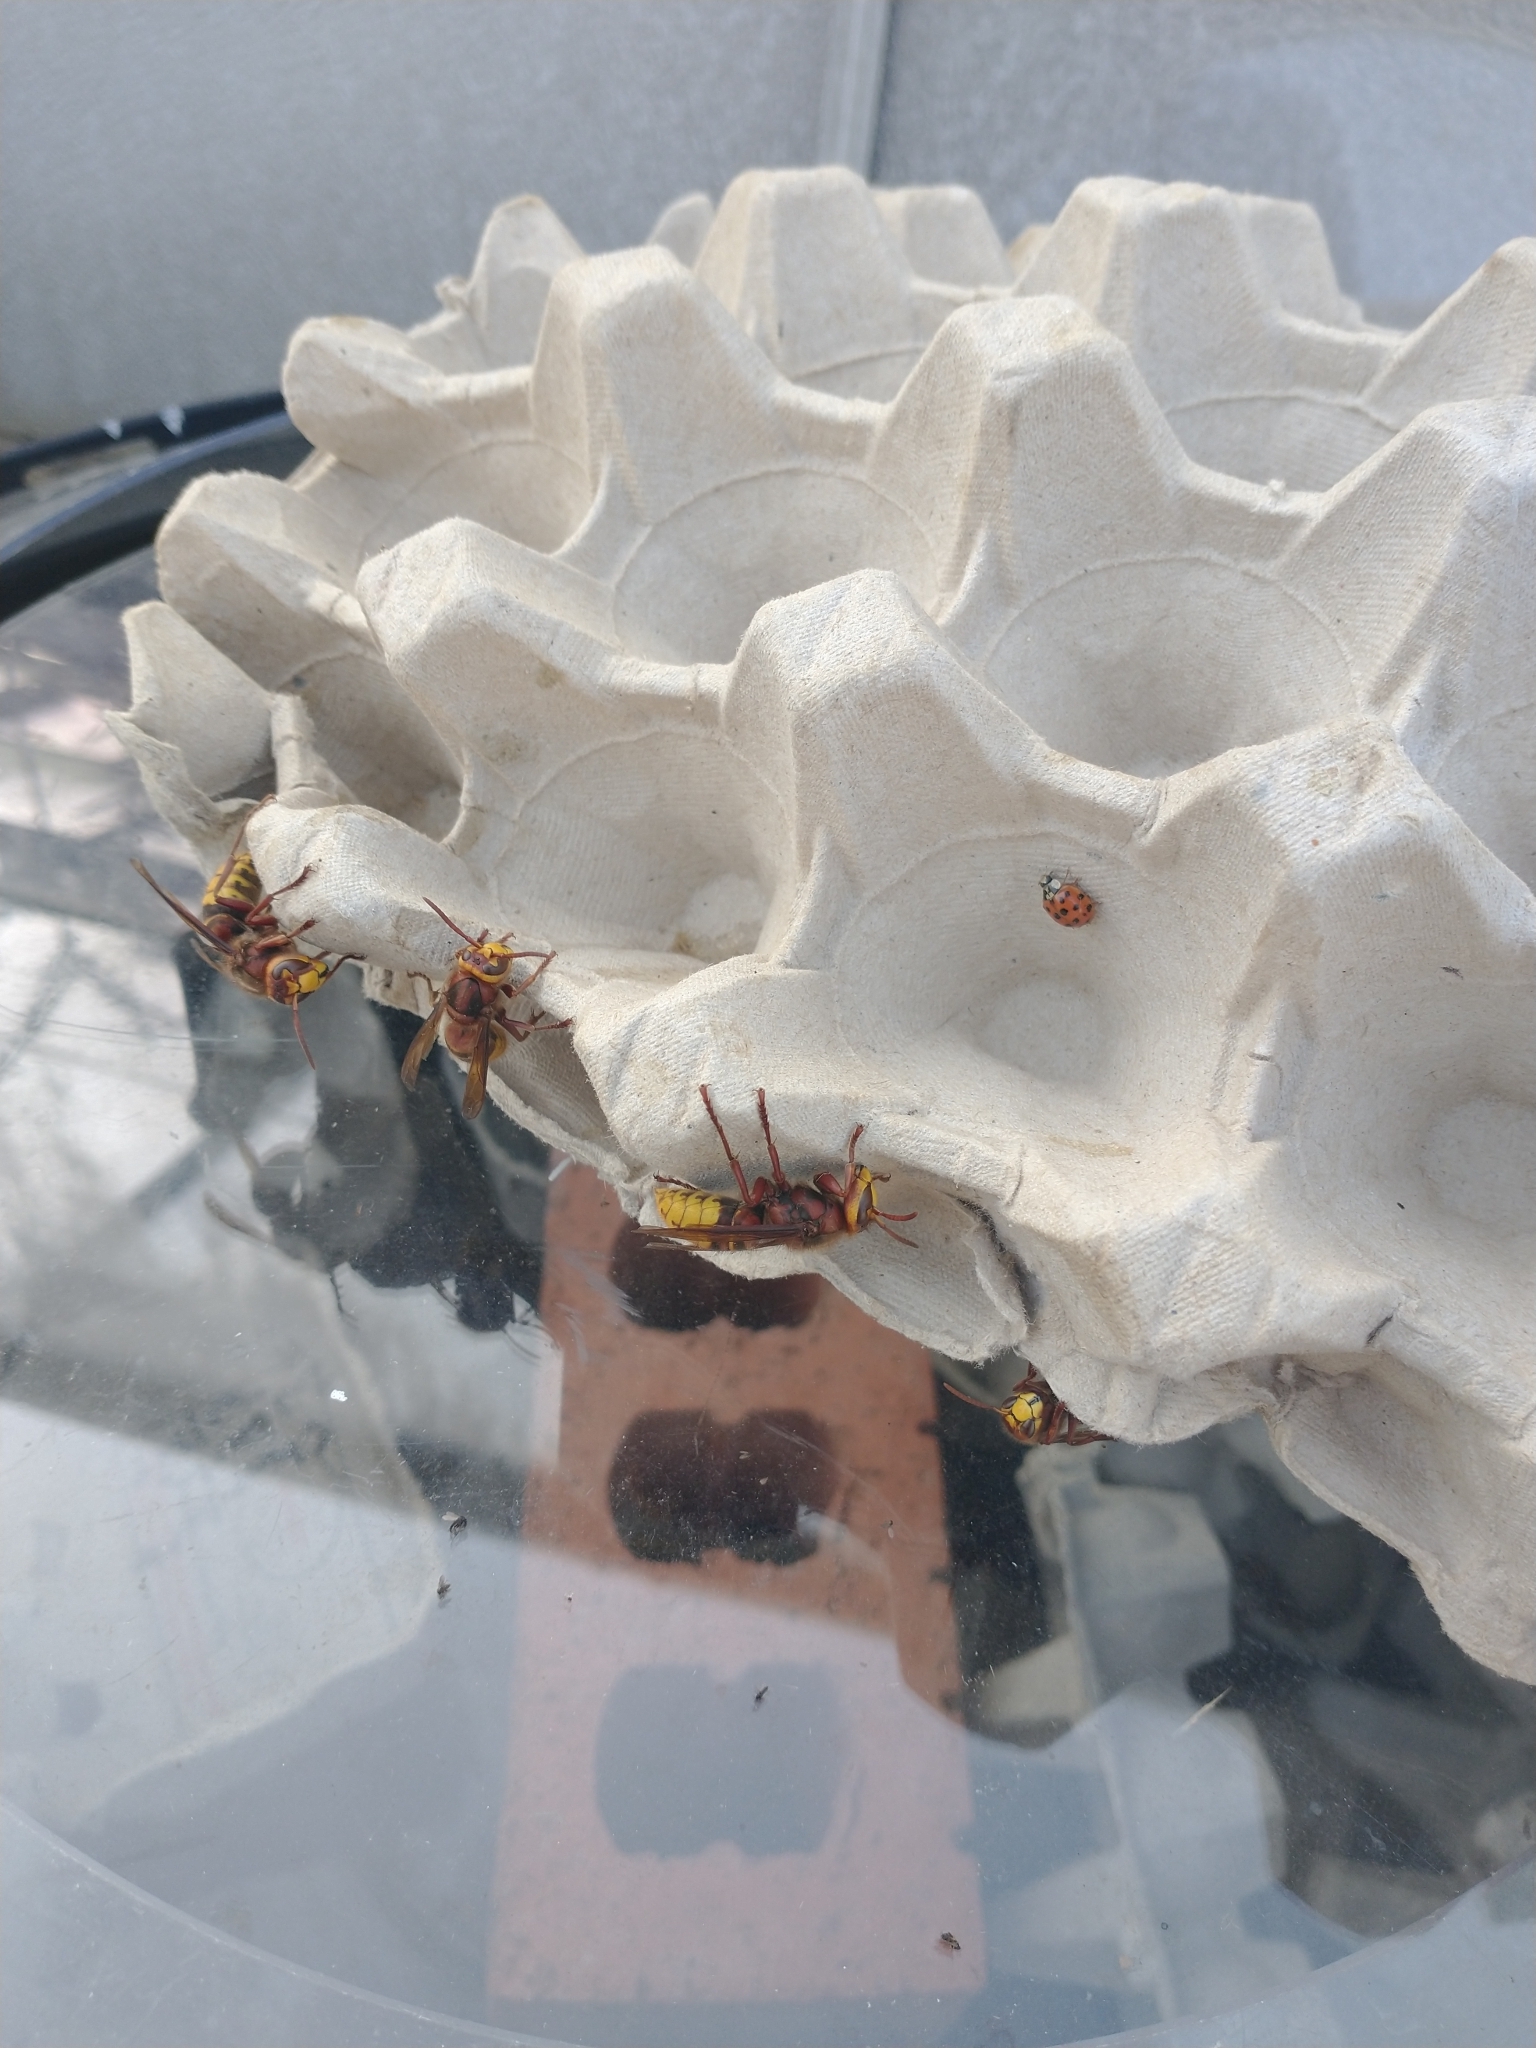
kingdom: Animalia
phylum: Arthropoda
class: Insecta
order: Hymenoptera
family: Vespidae
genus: Vespa
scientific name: Vespa crabro
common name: Hornet
